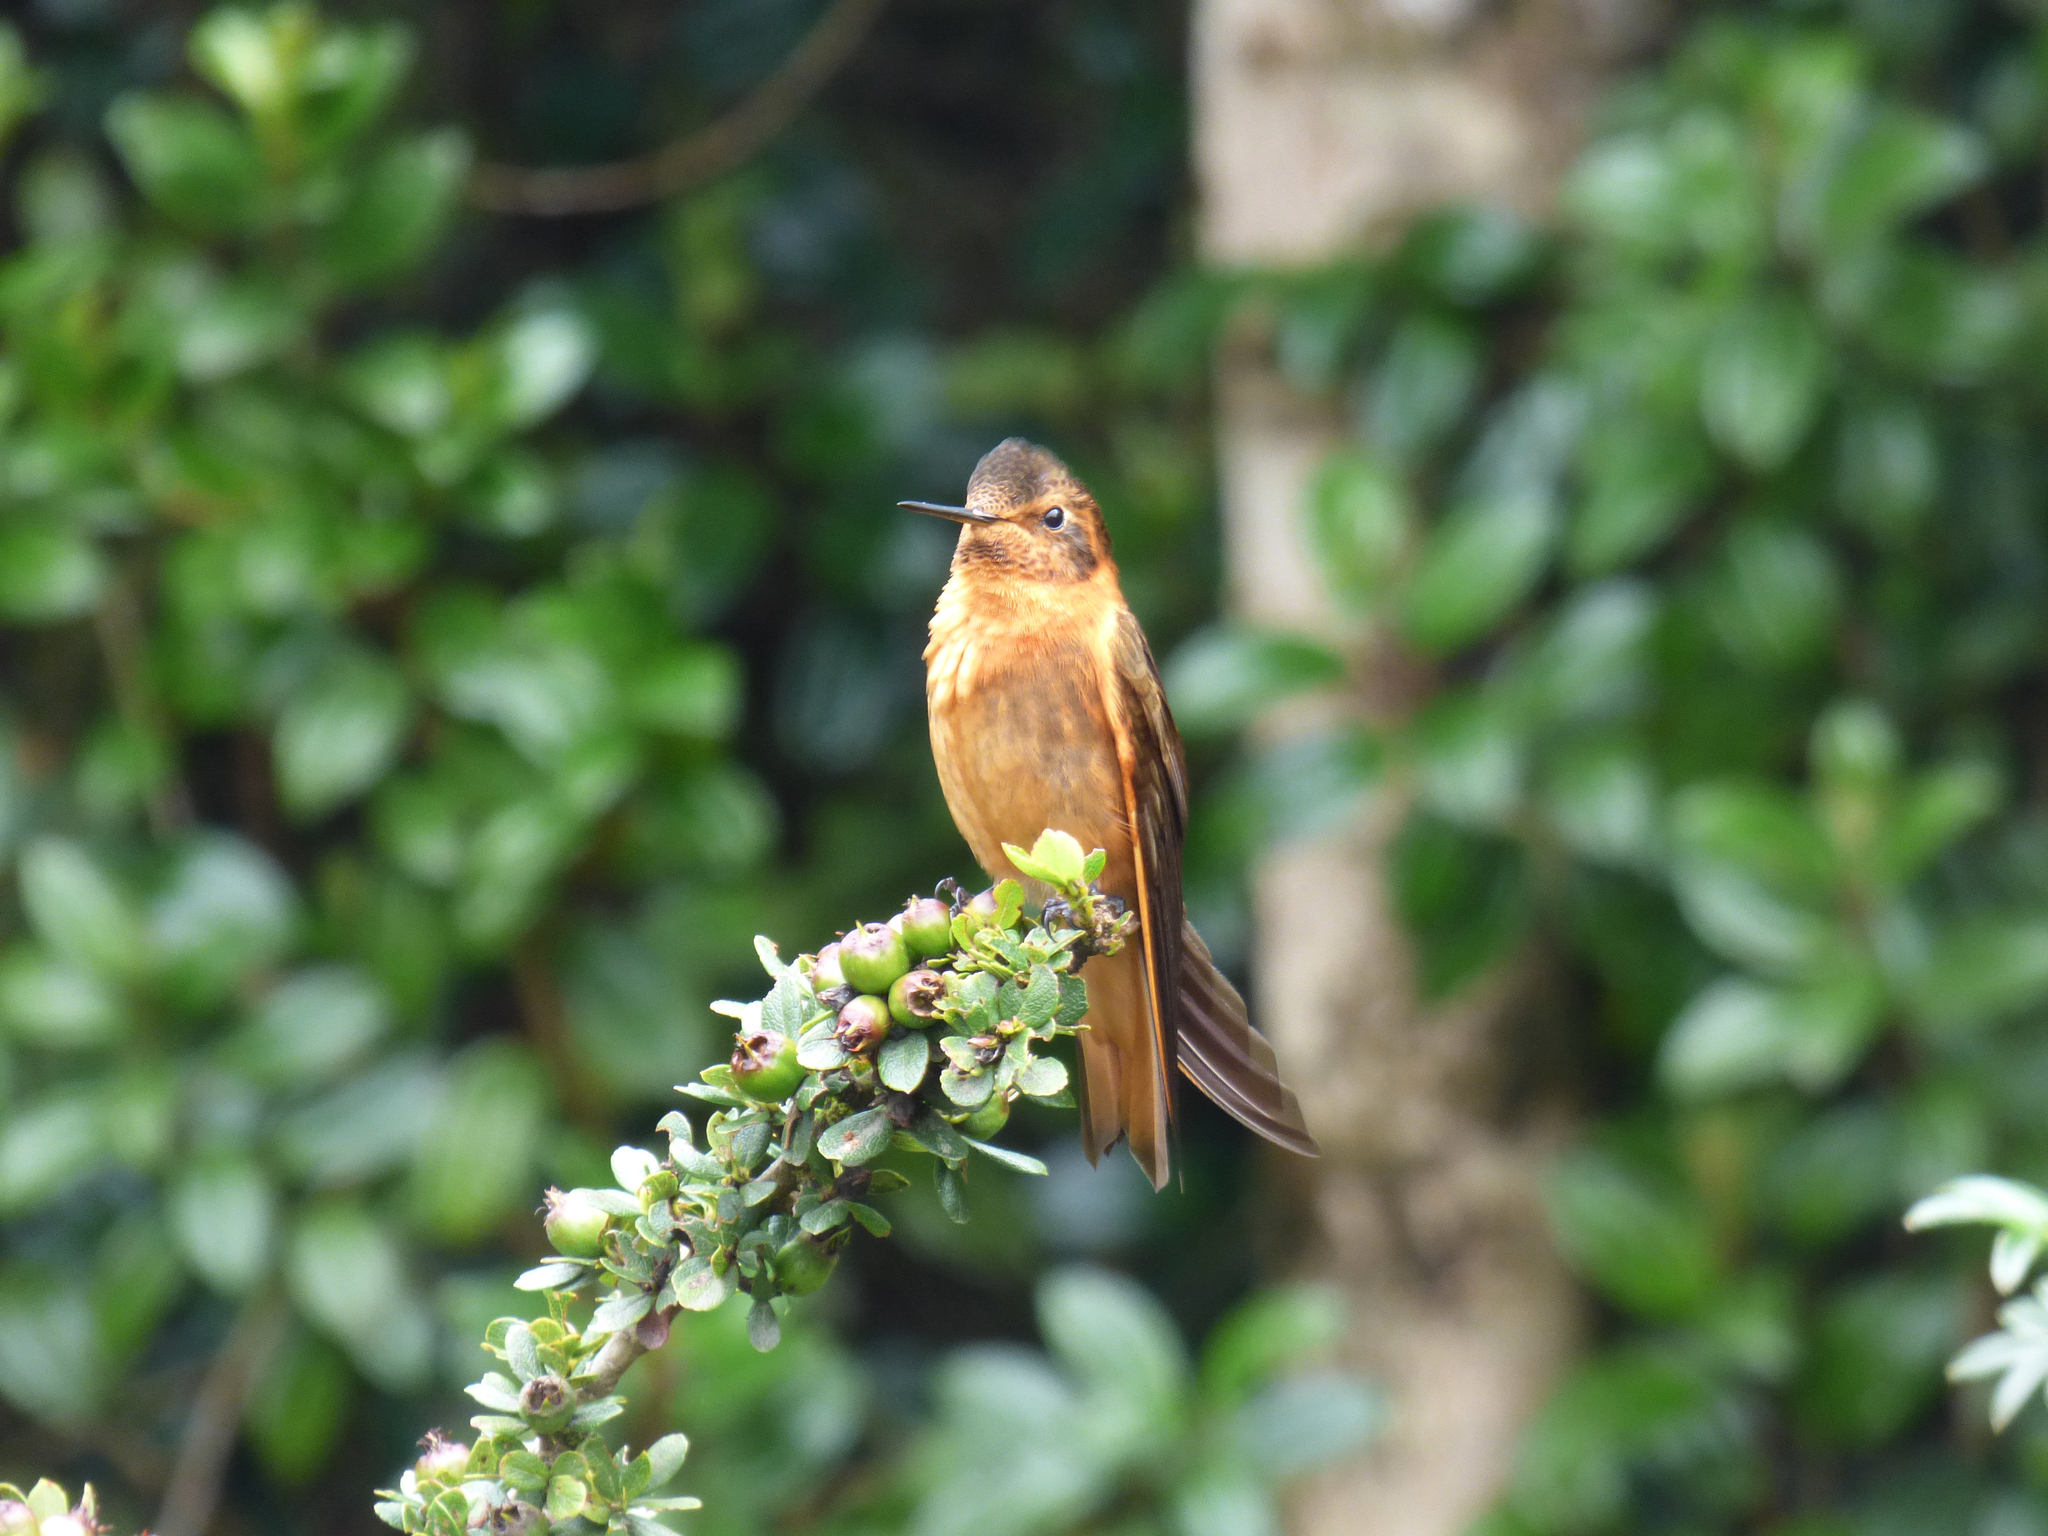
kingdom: Animalia
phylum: Chordata
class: Aves
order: Apodiformes
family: Trochilidae
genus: Aglaeactis
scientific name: Aglaeactis cupripennis
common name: Shining sunbeam
